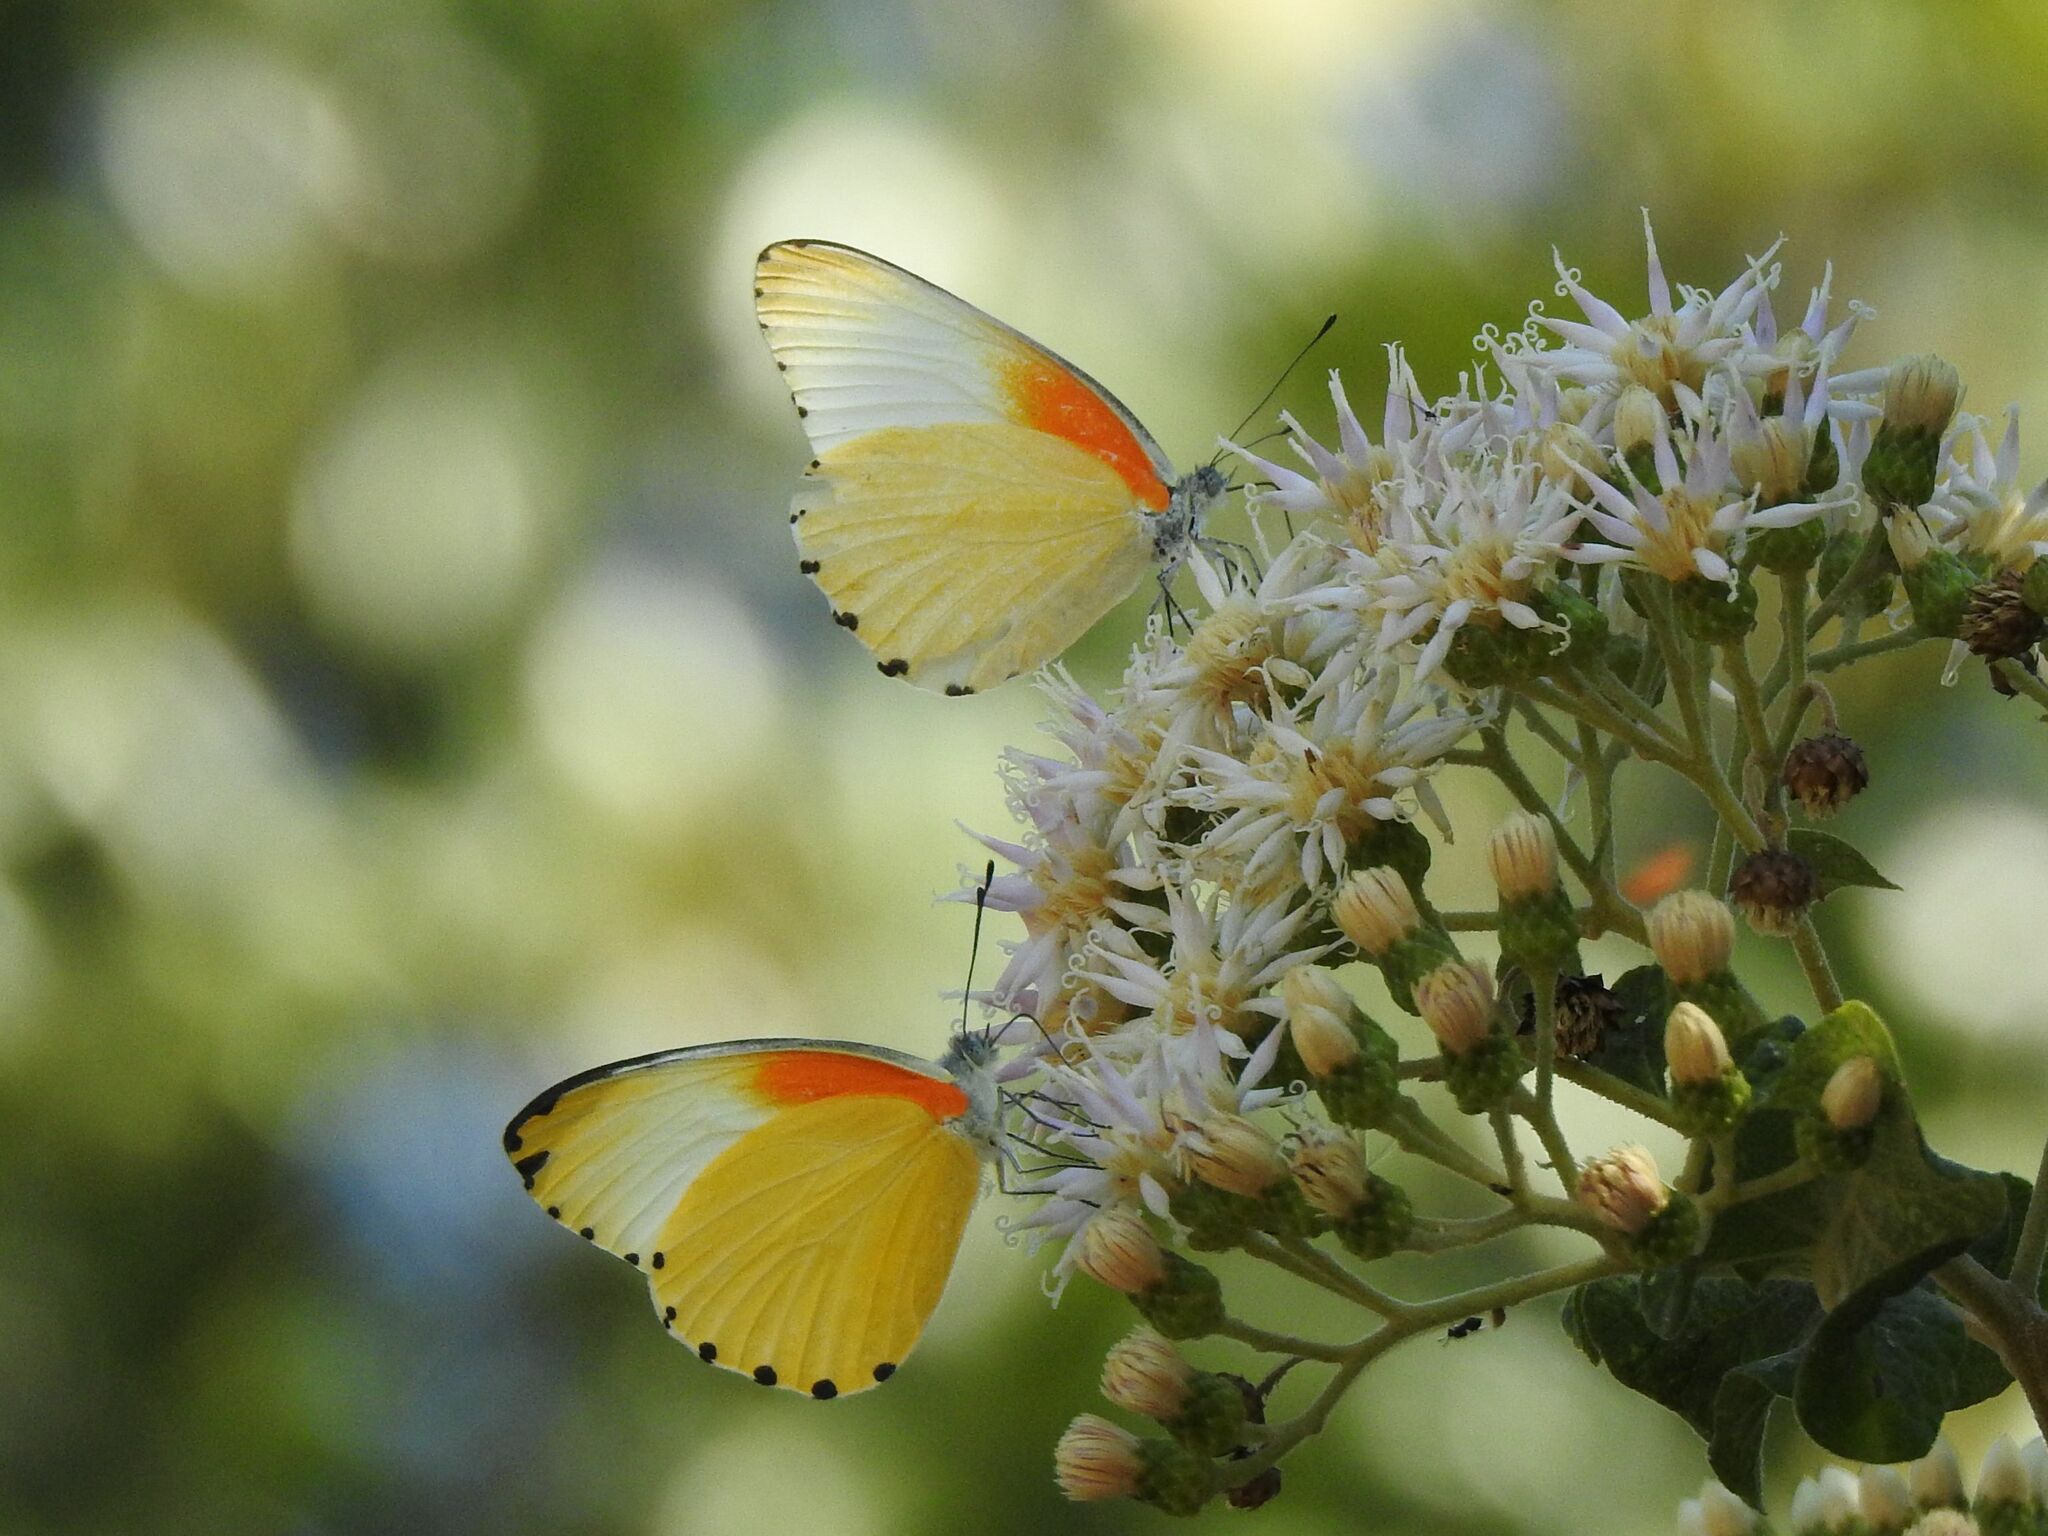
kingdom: Animalia
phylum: Arthropoda
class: Insecta
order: Lepidoptera
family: Pieridae
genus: Mylothris
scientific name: Mylothris agathina
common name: Eastern dotted border
